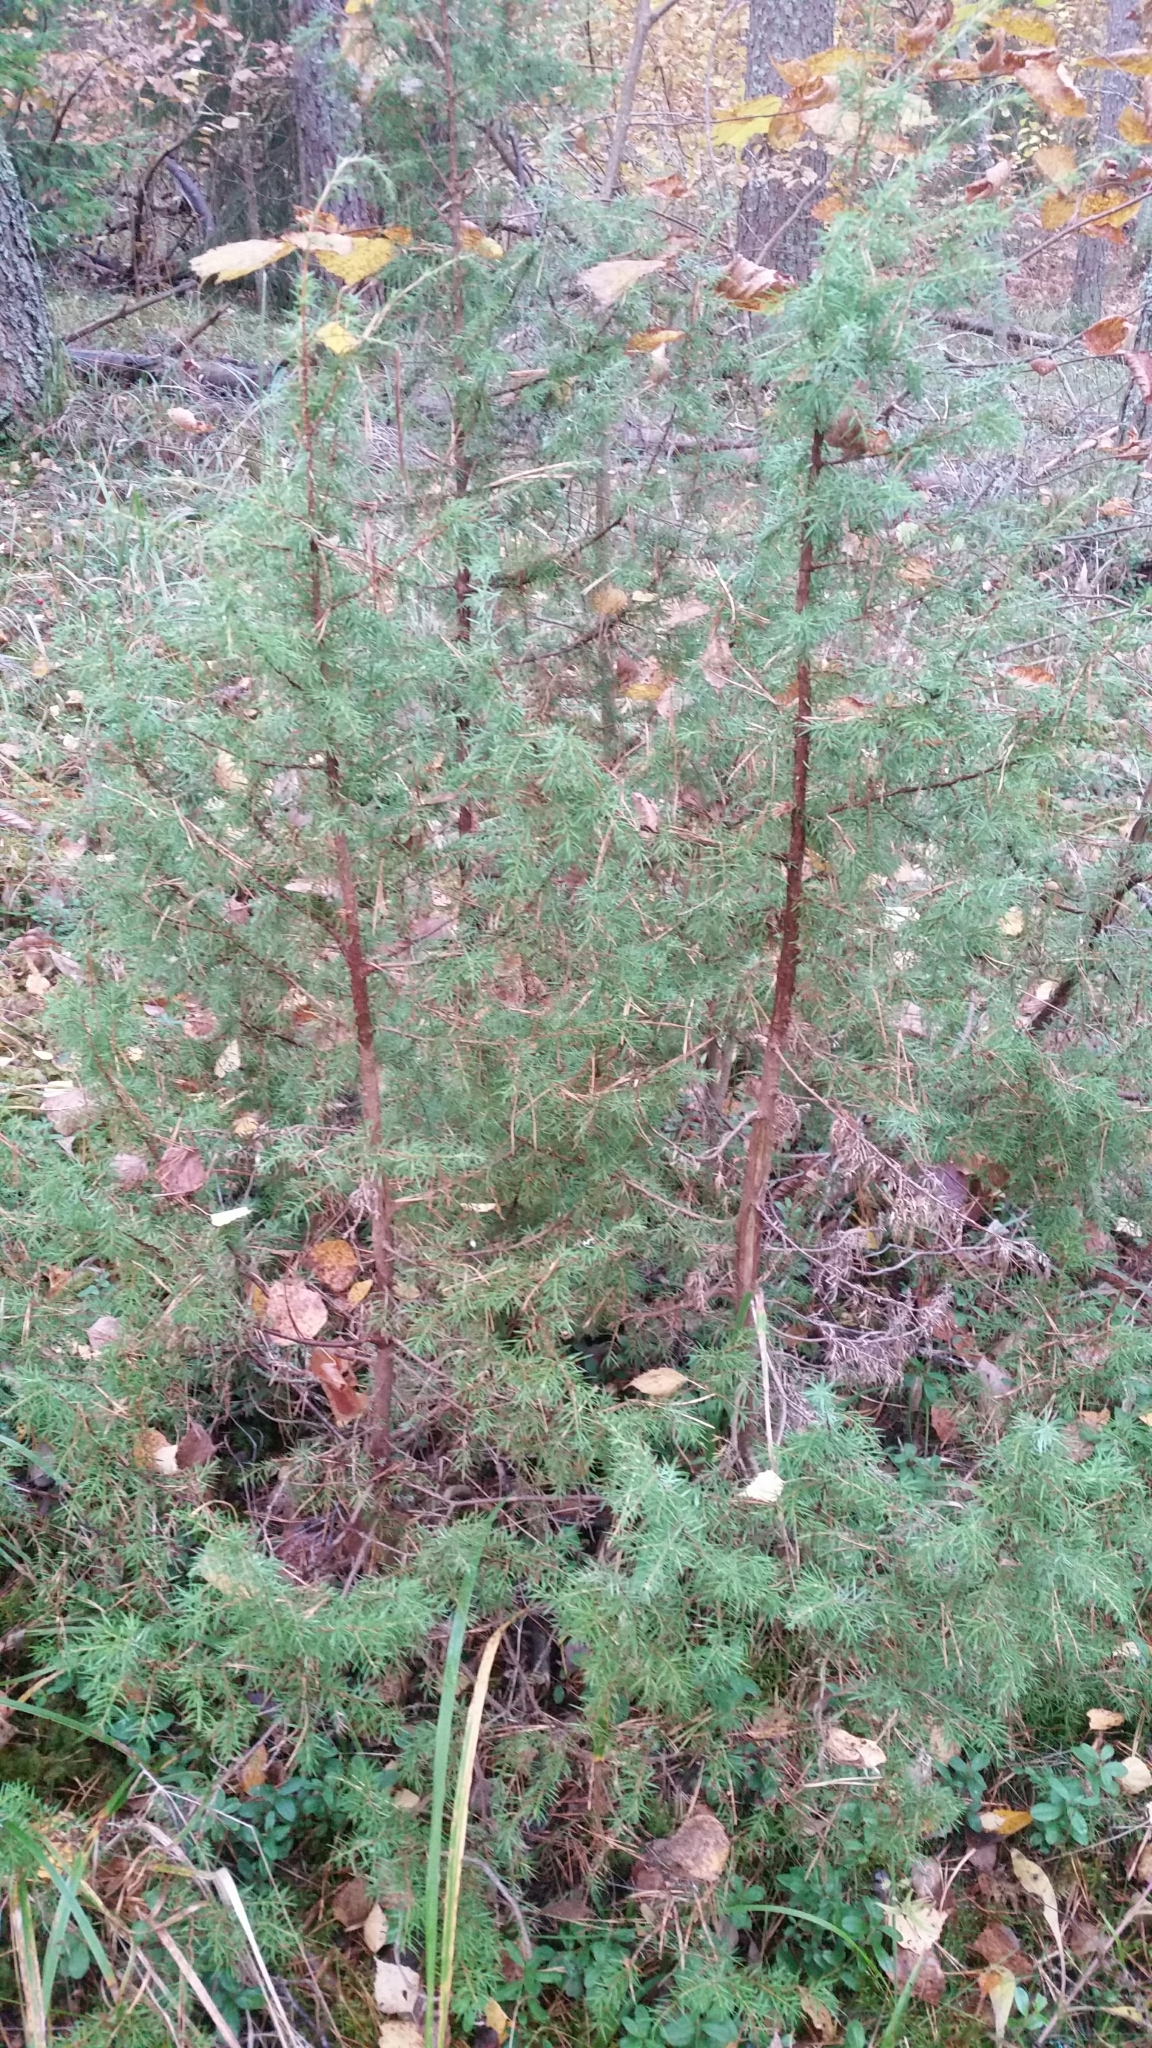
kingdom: Plantae
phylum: Tracheophyta
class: Pinopsida
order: Pinales
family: Cupressaceae
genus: Juniperus
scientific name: Juniperus communis
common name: Common juniper
